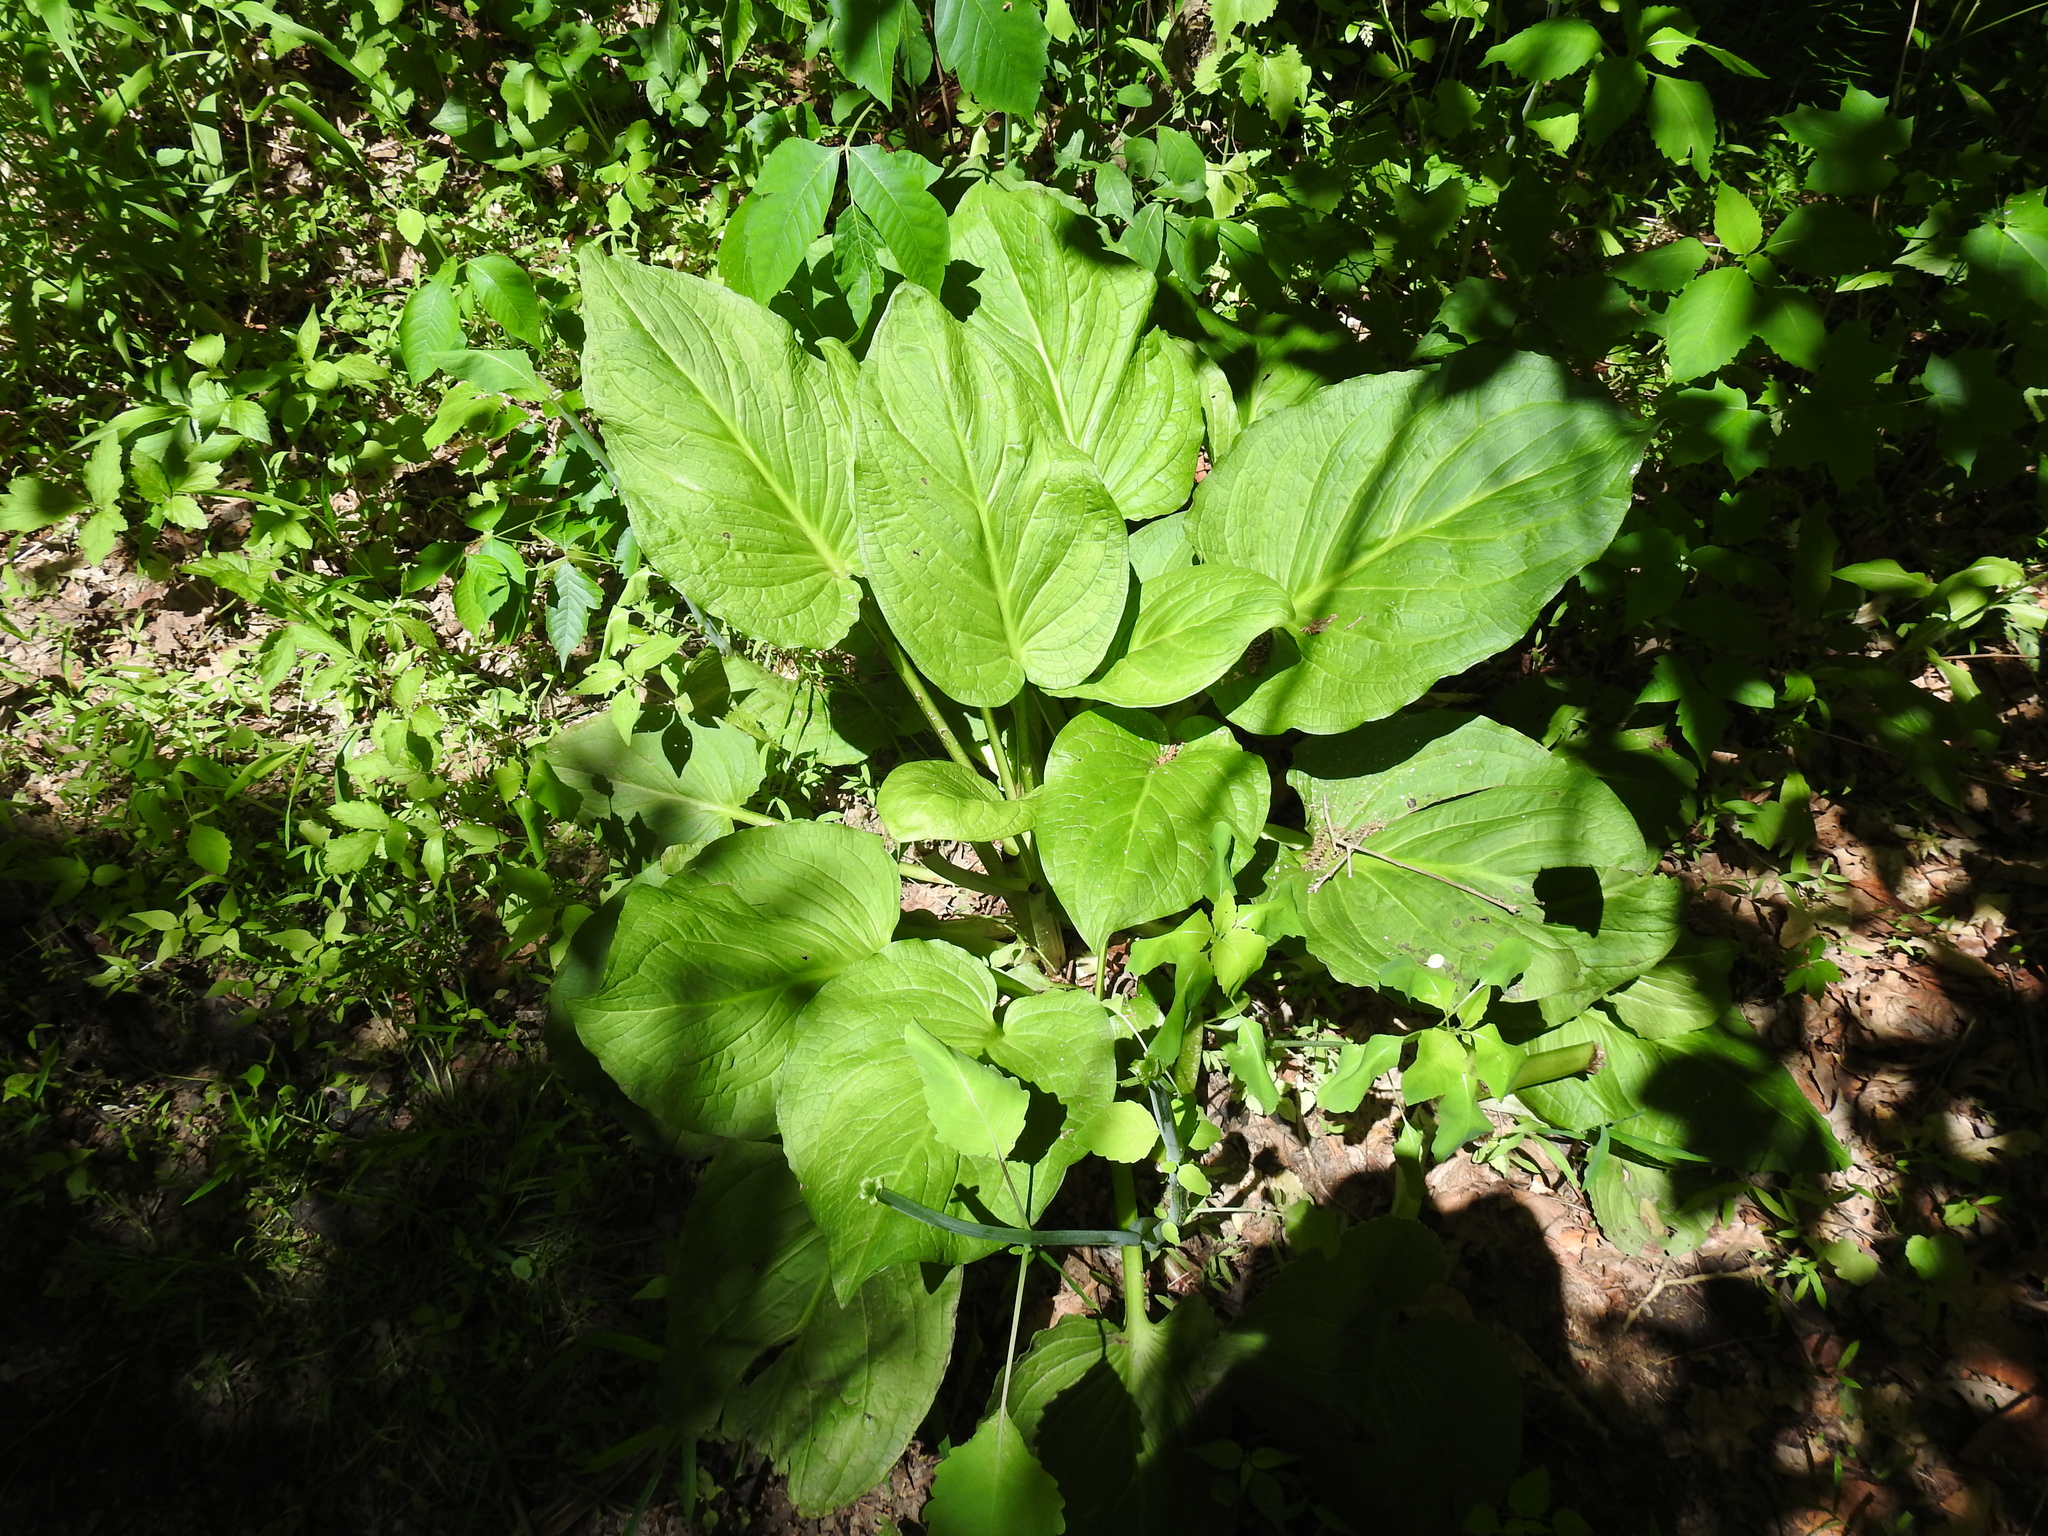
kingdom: Plantae
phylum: Tracheophyta
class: Liliopsida
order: Alismatales
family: Araceae
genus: Symplocarpus
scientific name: Symplocarpus foetidus
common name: Eastern skunk cabbage
